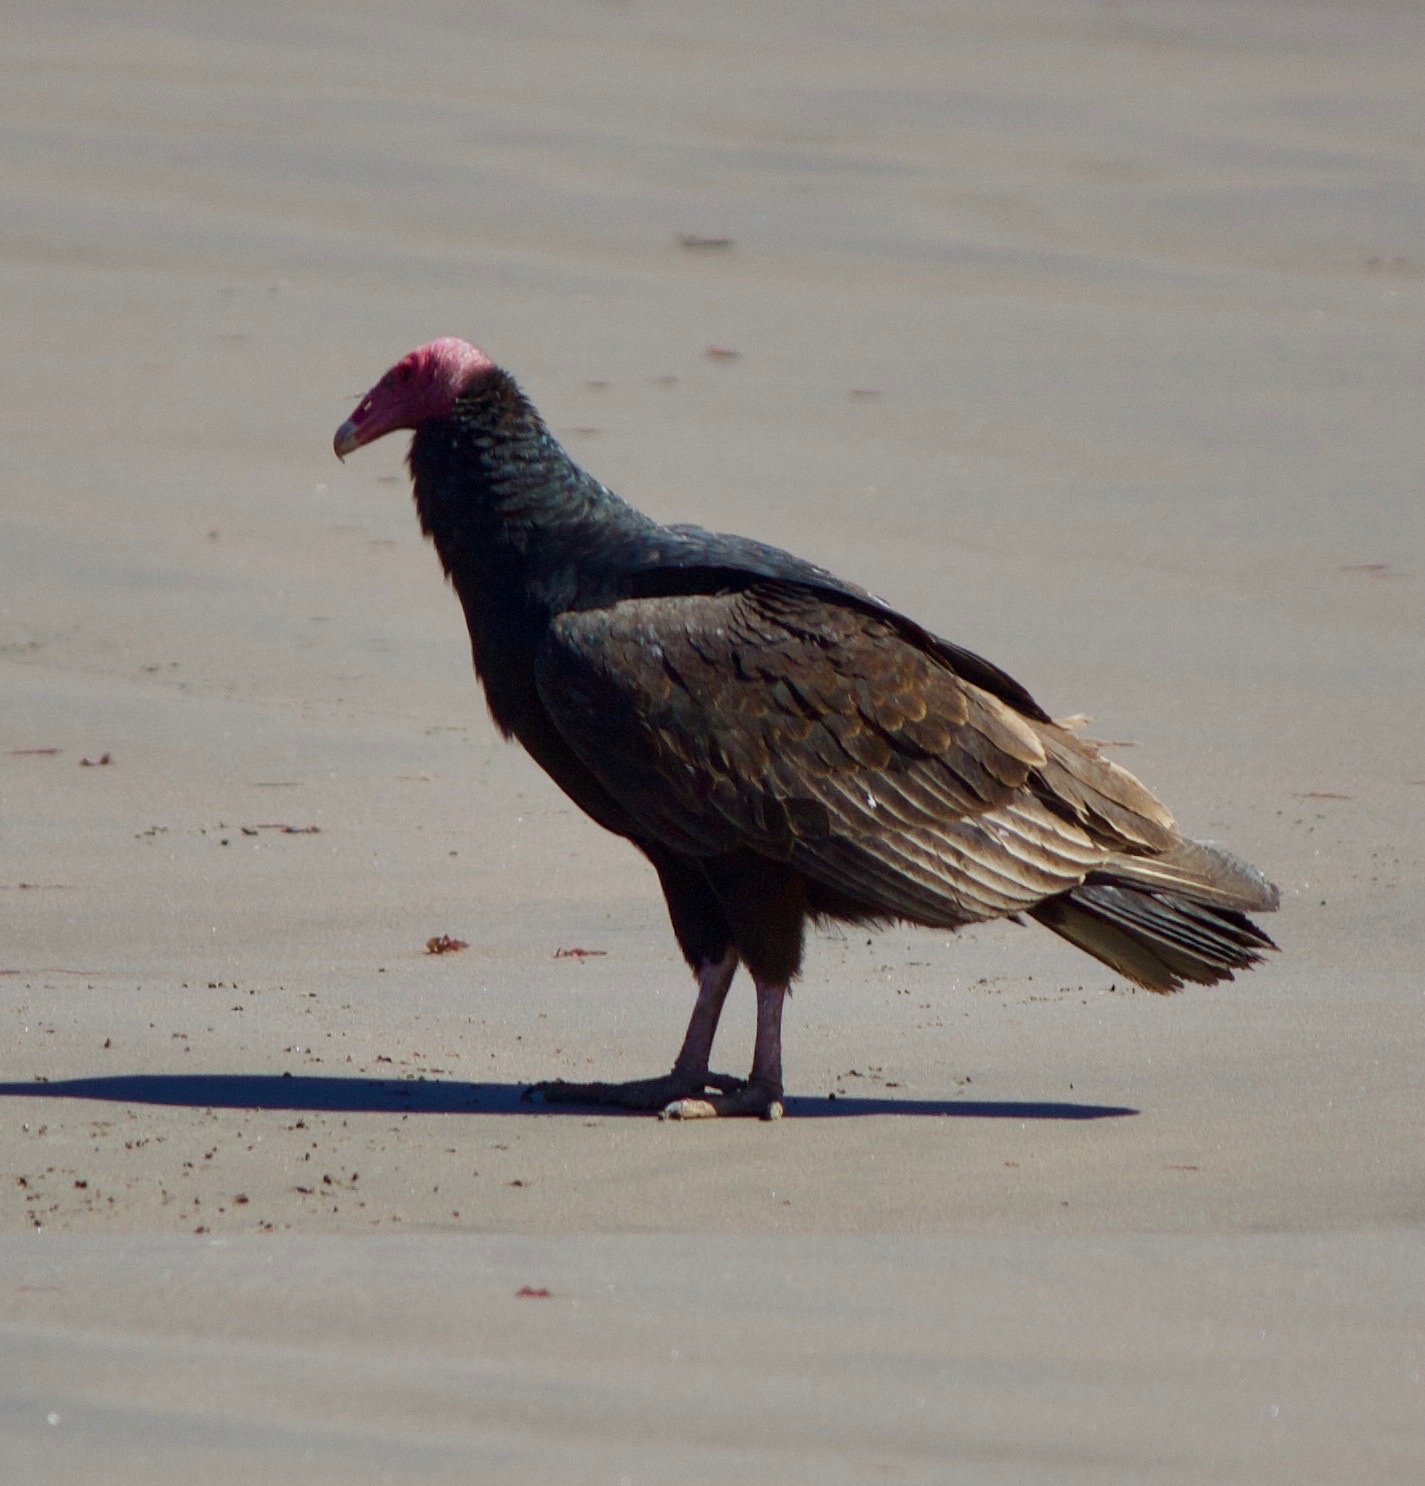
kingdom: Animalia
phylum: Chordata
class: Aves
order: Accipitriformes
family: Cathartidae
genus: Cathartes
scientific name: Cathartes aura
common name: Turkey vulture
